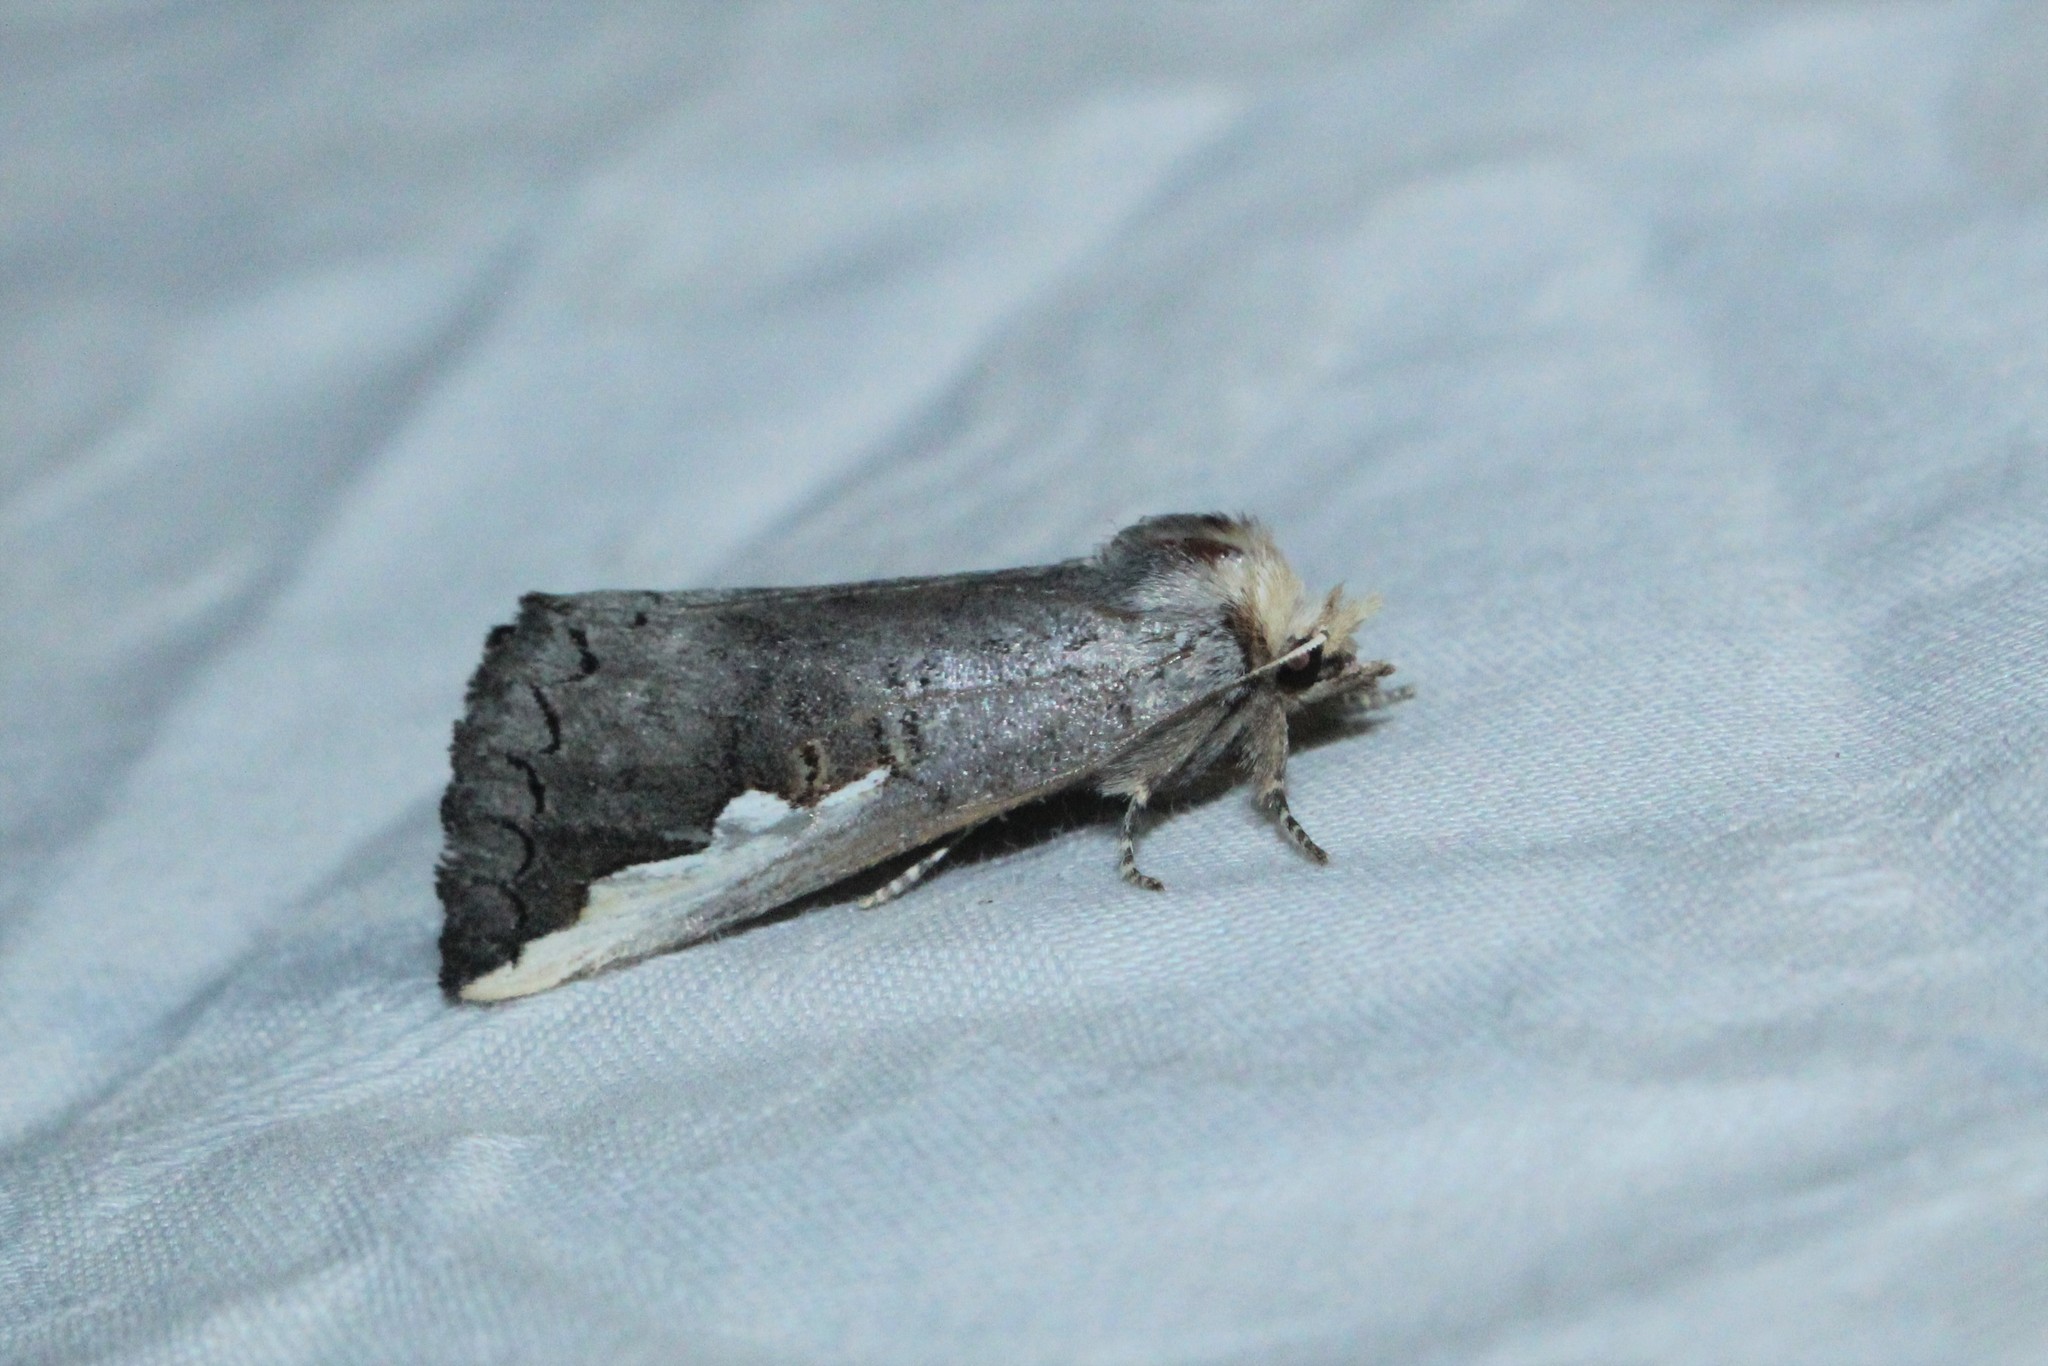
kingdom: Animalia
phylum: Arthropoda
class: Insecta
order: Lepidoptera
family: Notodontidae
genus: Symmerista
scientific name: Symmerista
